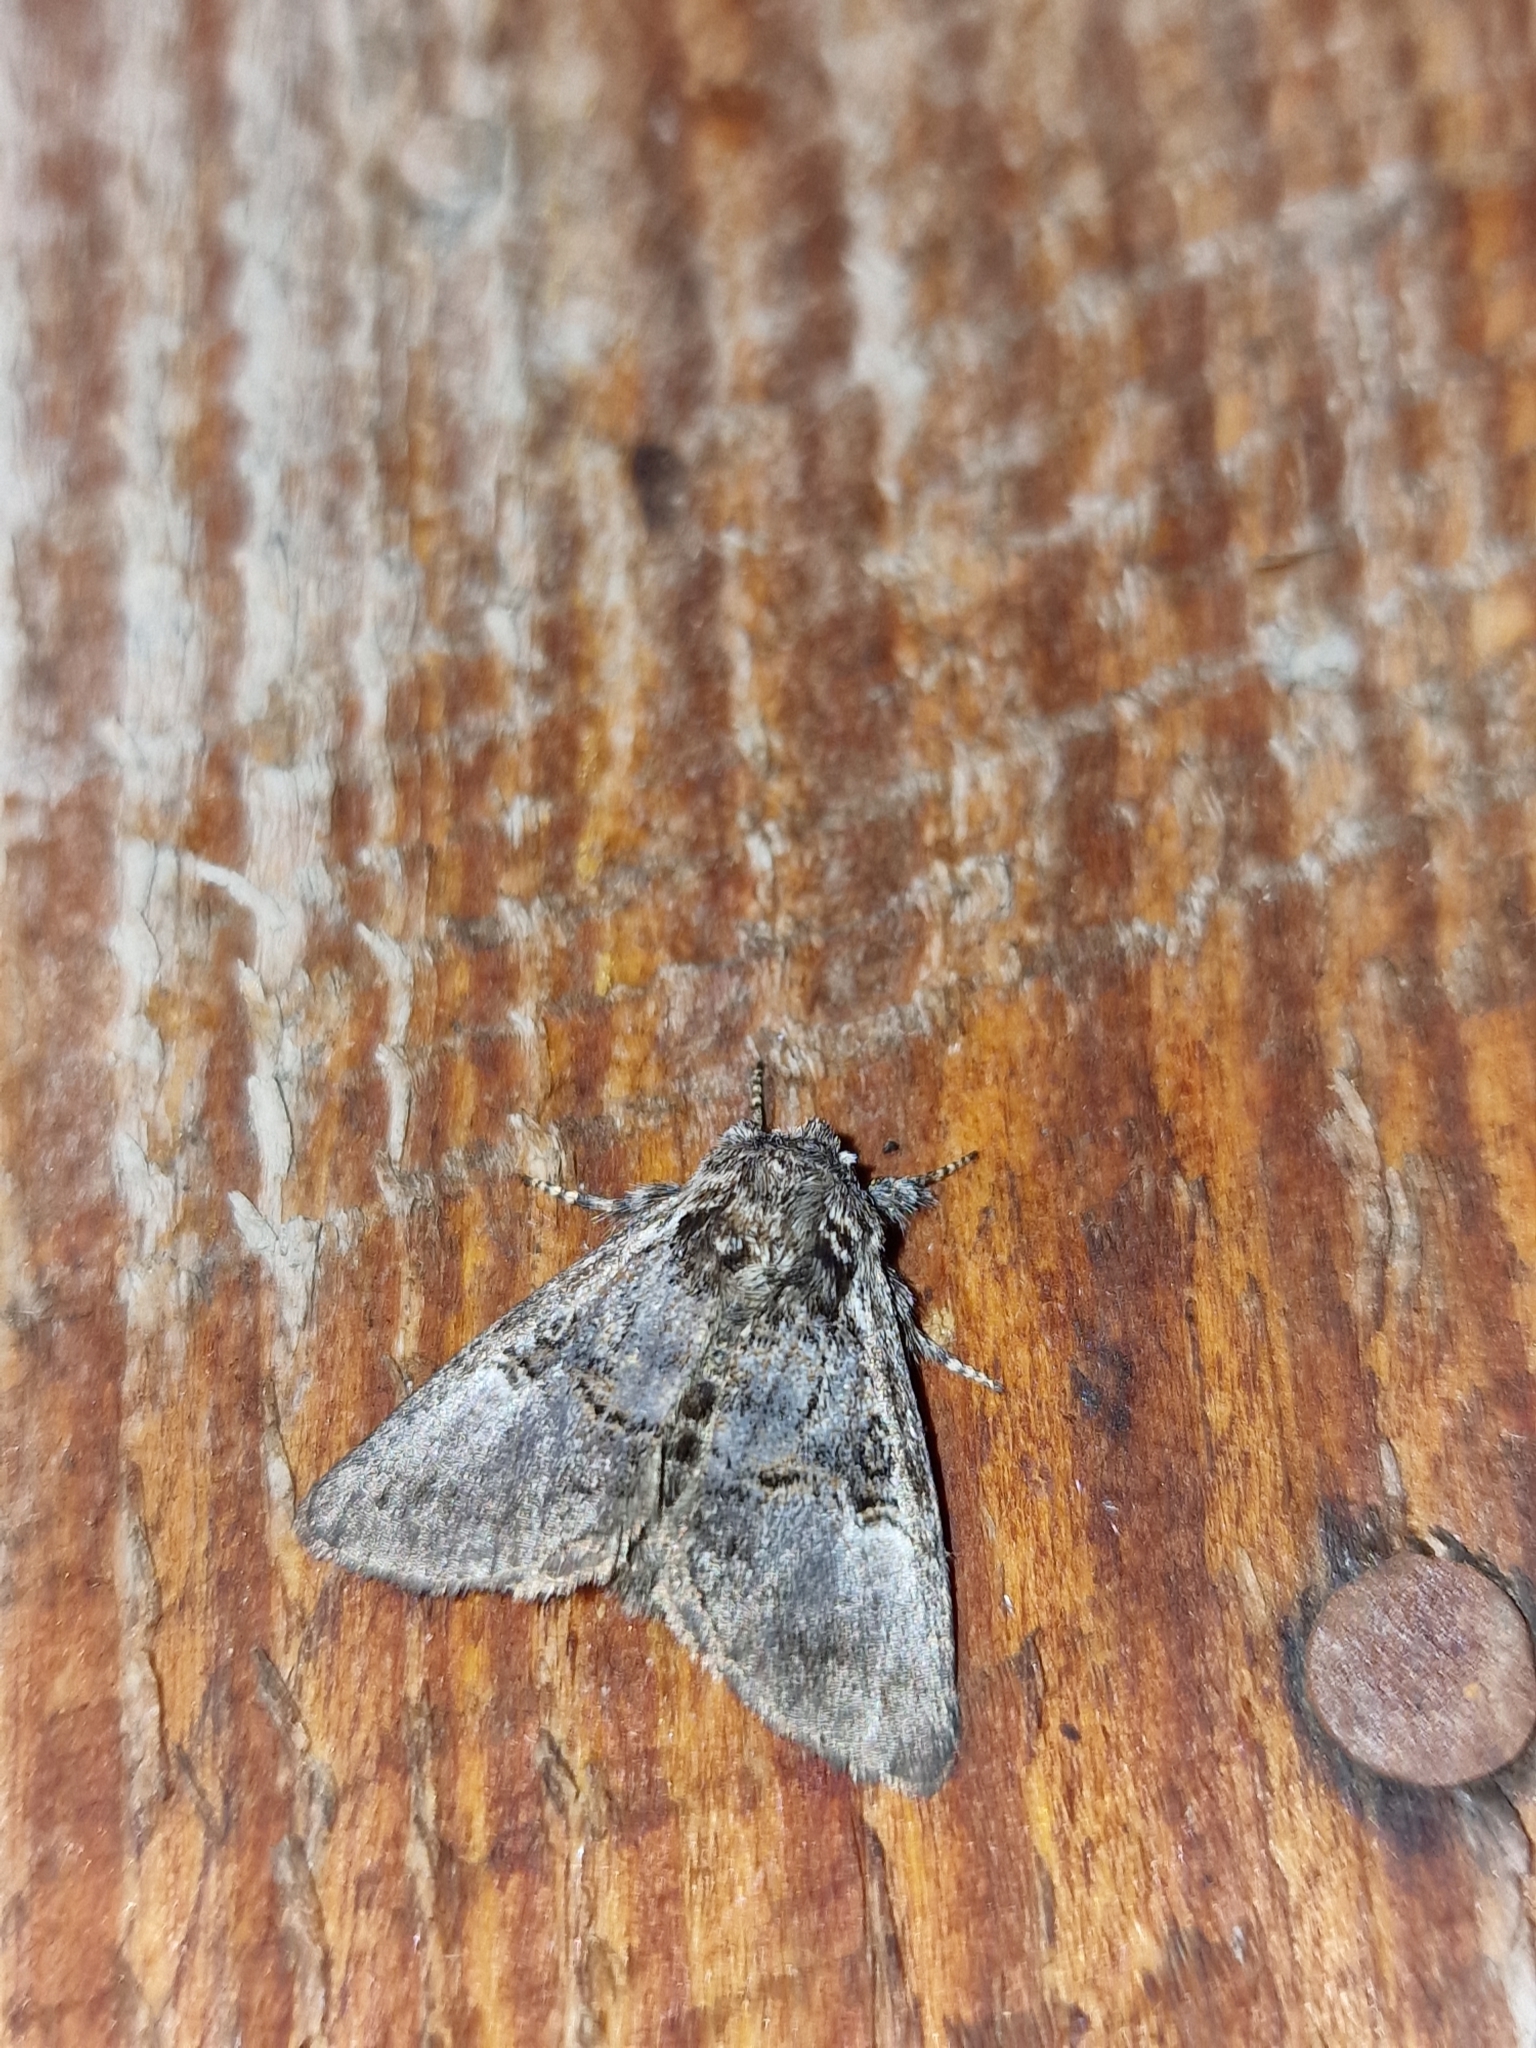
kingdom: Animalia
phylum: Arthropoda
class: Insecta
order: Lepidoptera
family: Noctuidae
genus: Colocasia
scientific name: Colocasia coryli
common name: Nut-tree tussock
